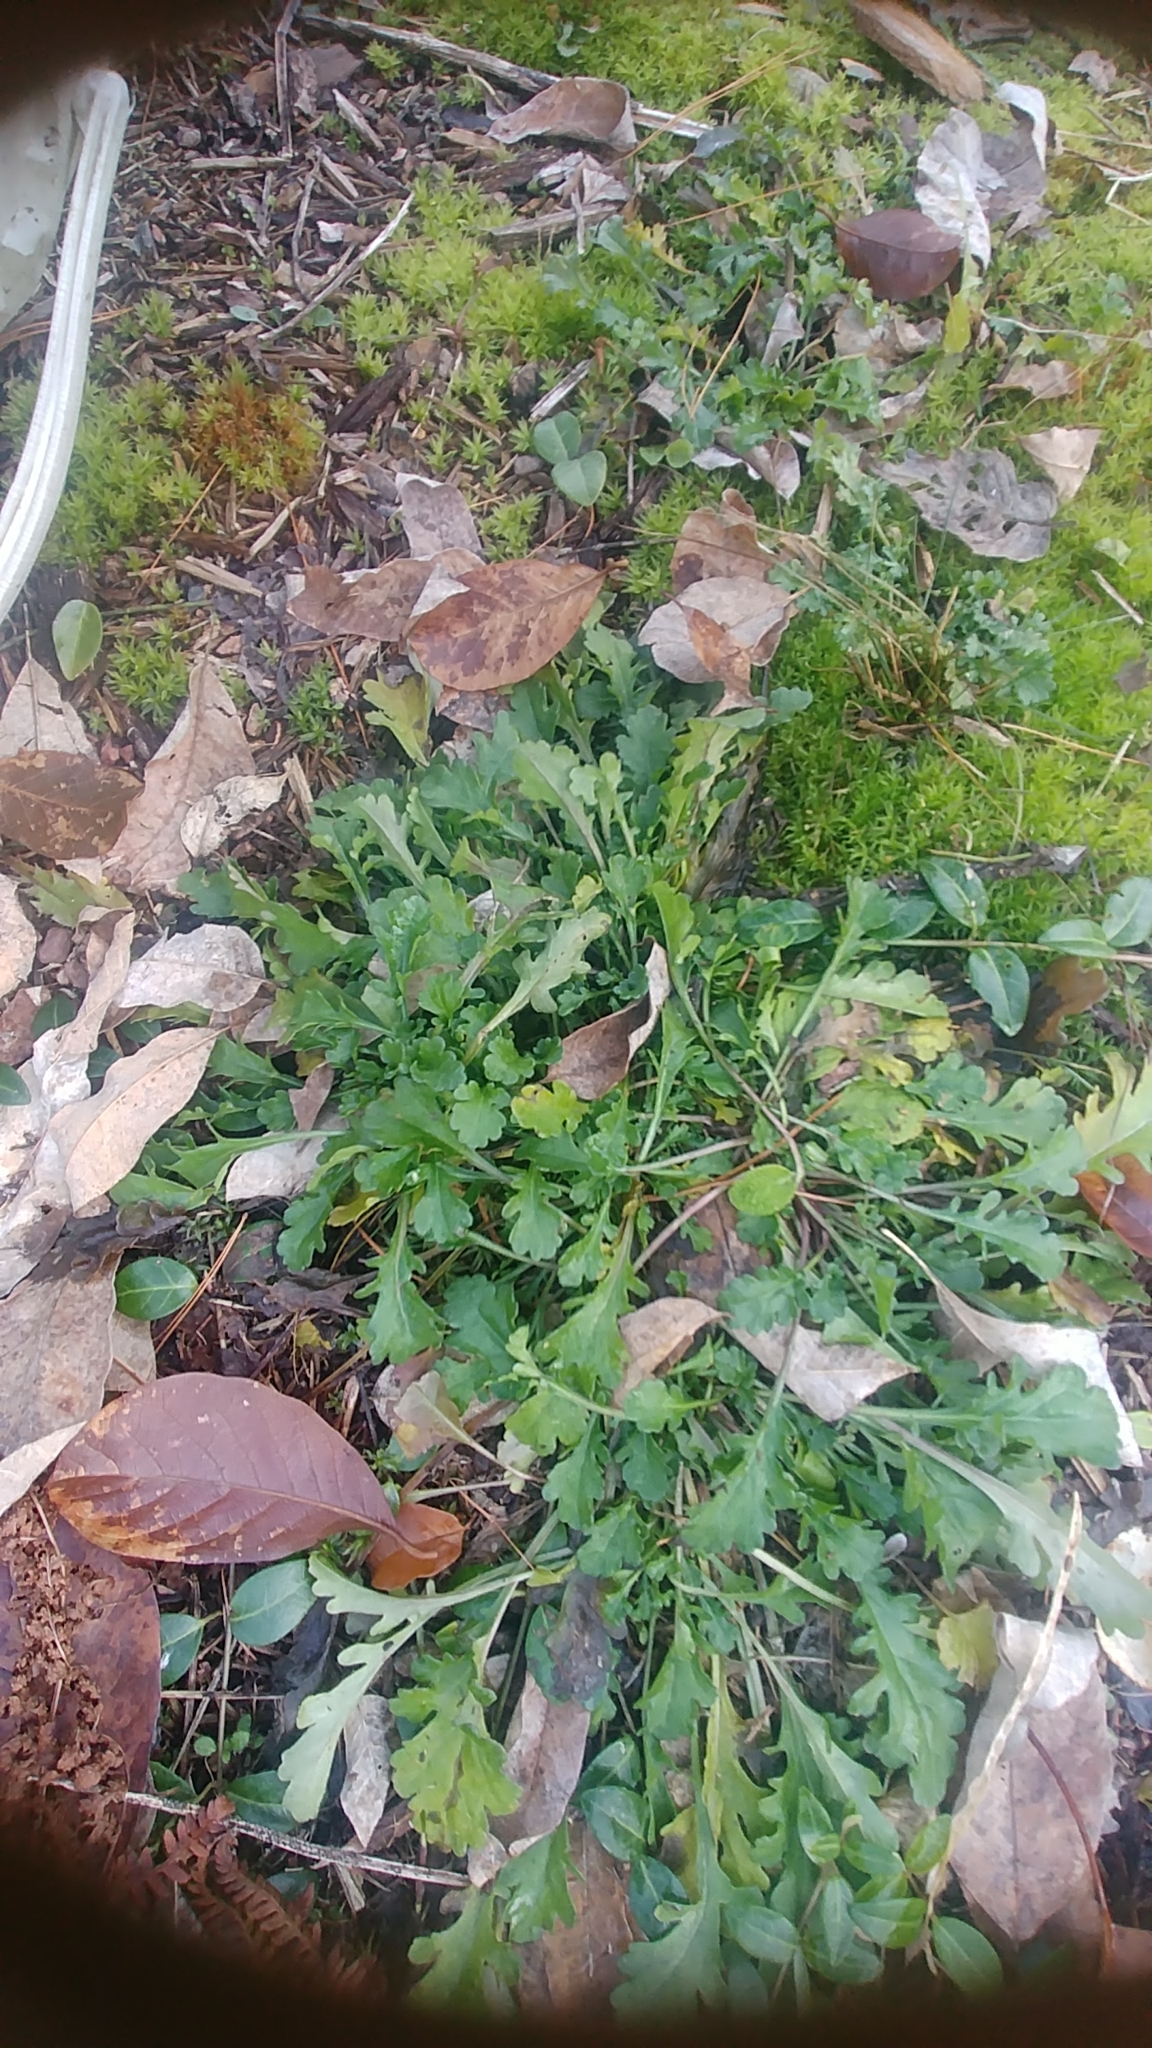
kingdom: Plantae
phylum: Tracheophyta
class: Magnoliopsida
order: Asterales
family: Asteraceae
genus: Leucanthemum
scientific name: Leucanthemum vulgare
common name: Oxeye daisy
